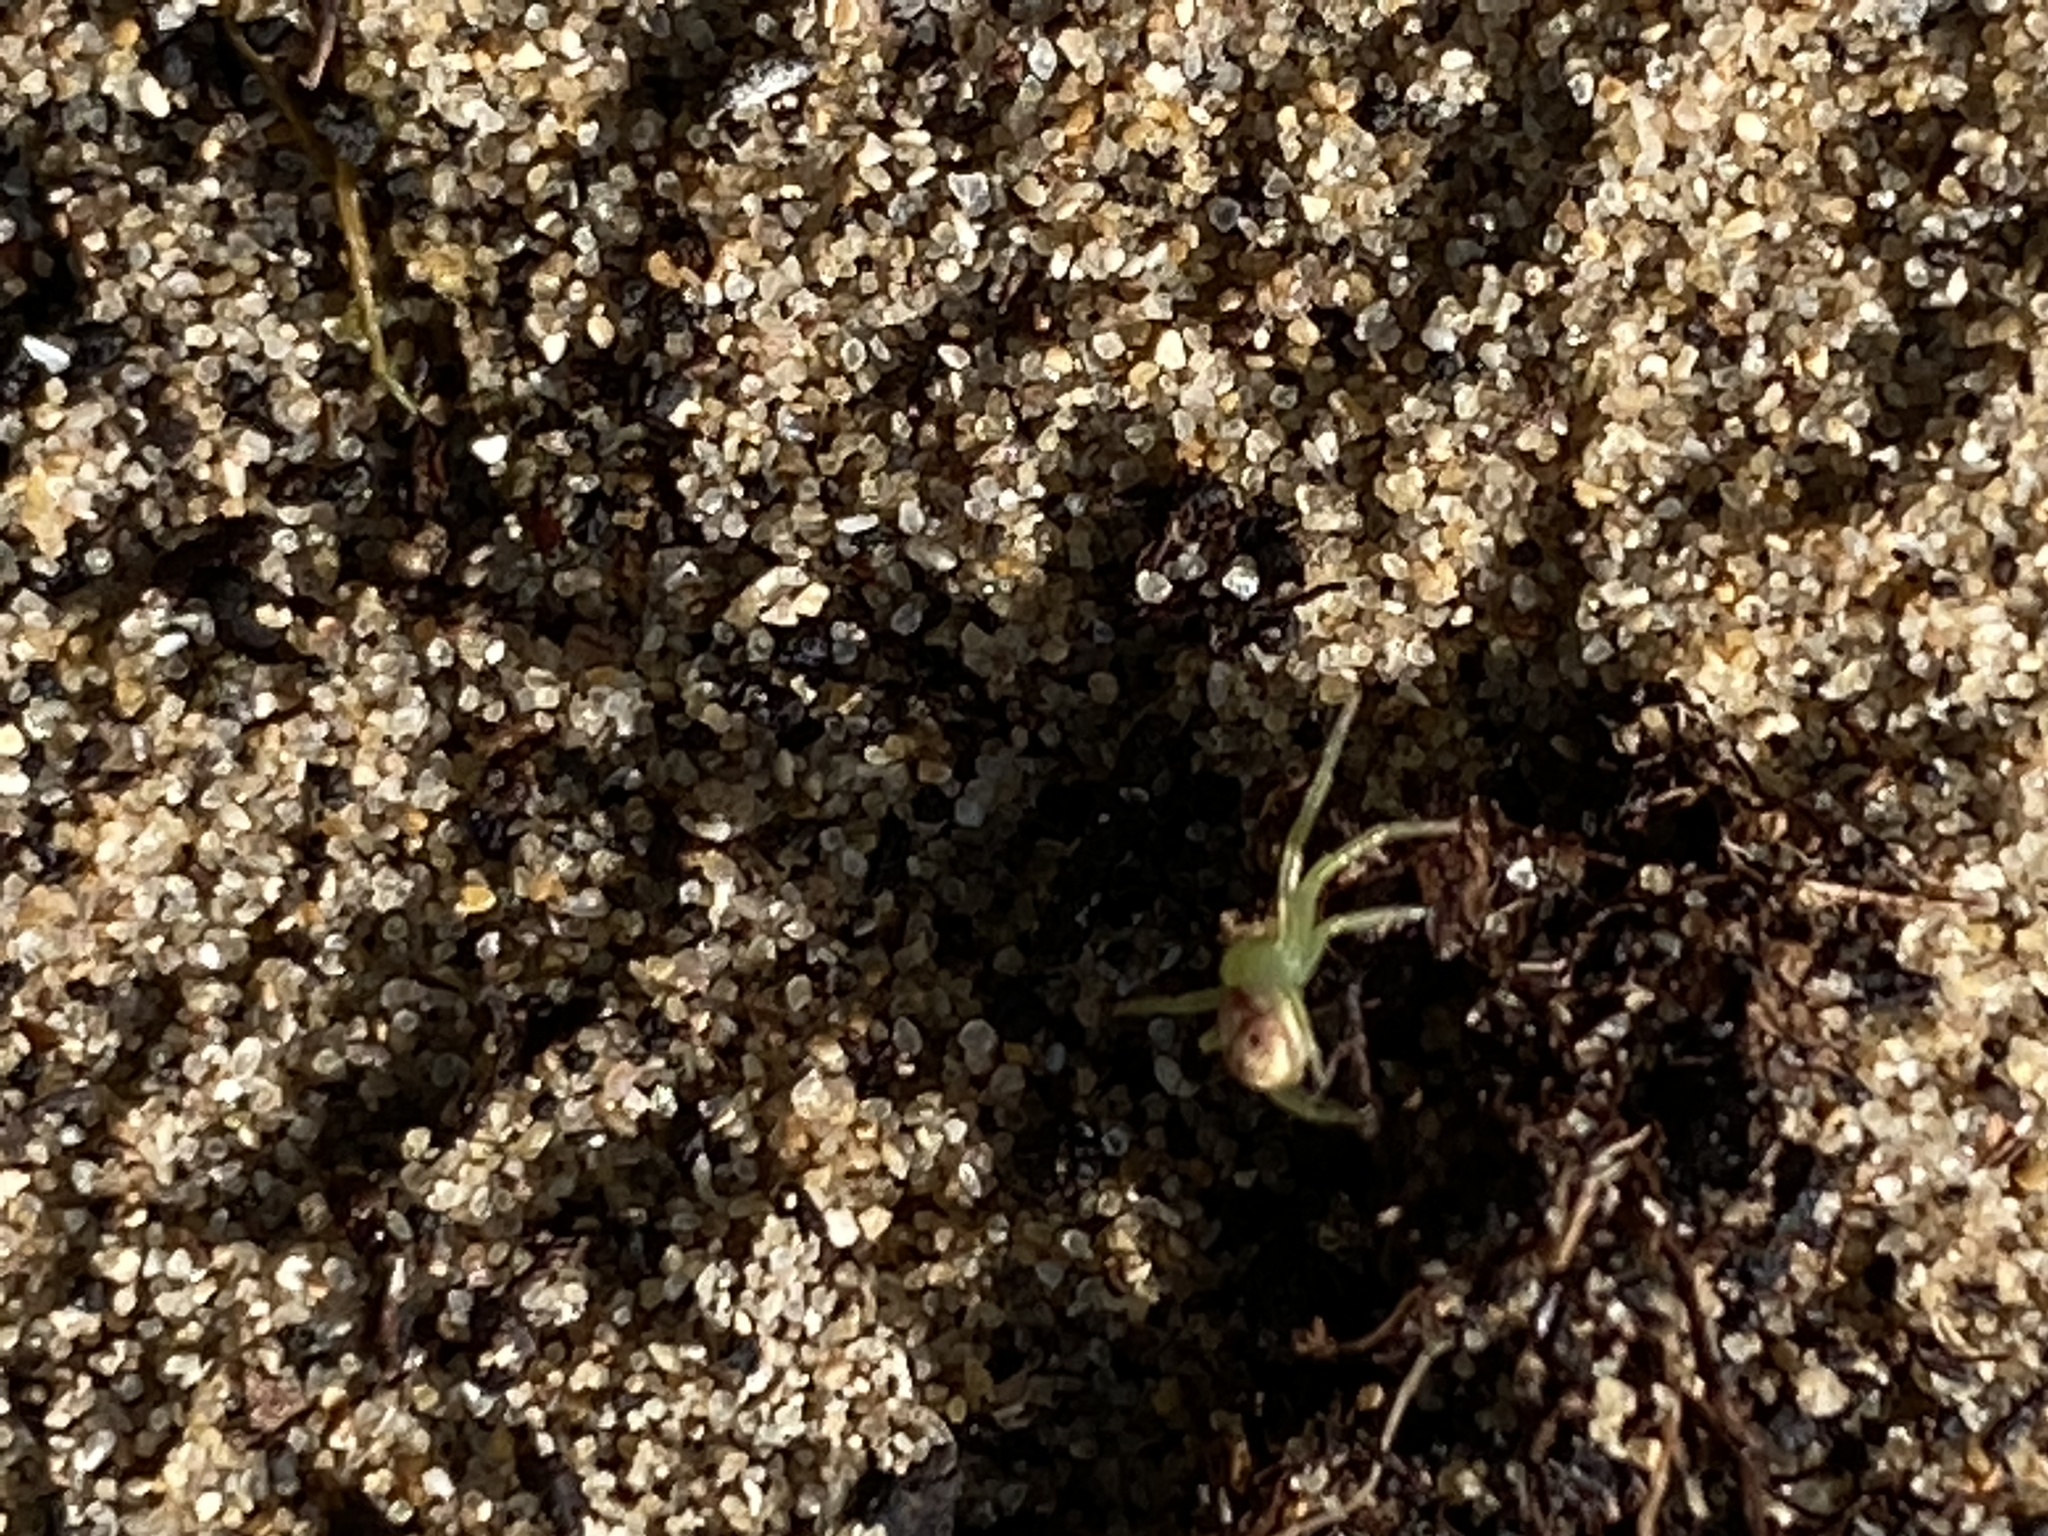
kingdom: Animalia
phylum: Arthropoda
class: Arachnida
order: Araneae
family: Thomisidae
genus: Synema
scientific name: Synema imitatrix
